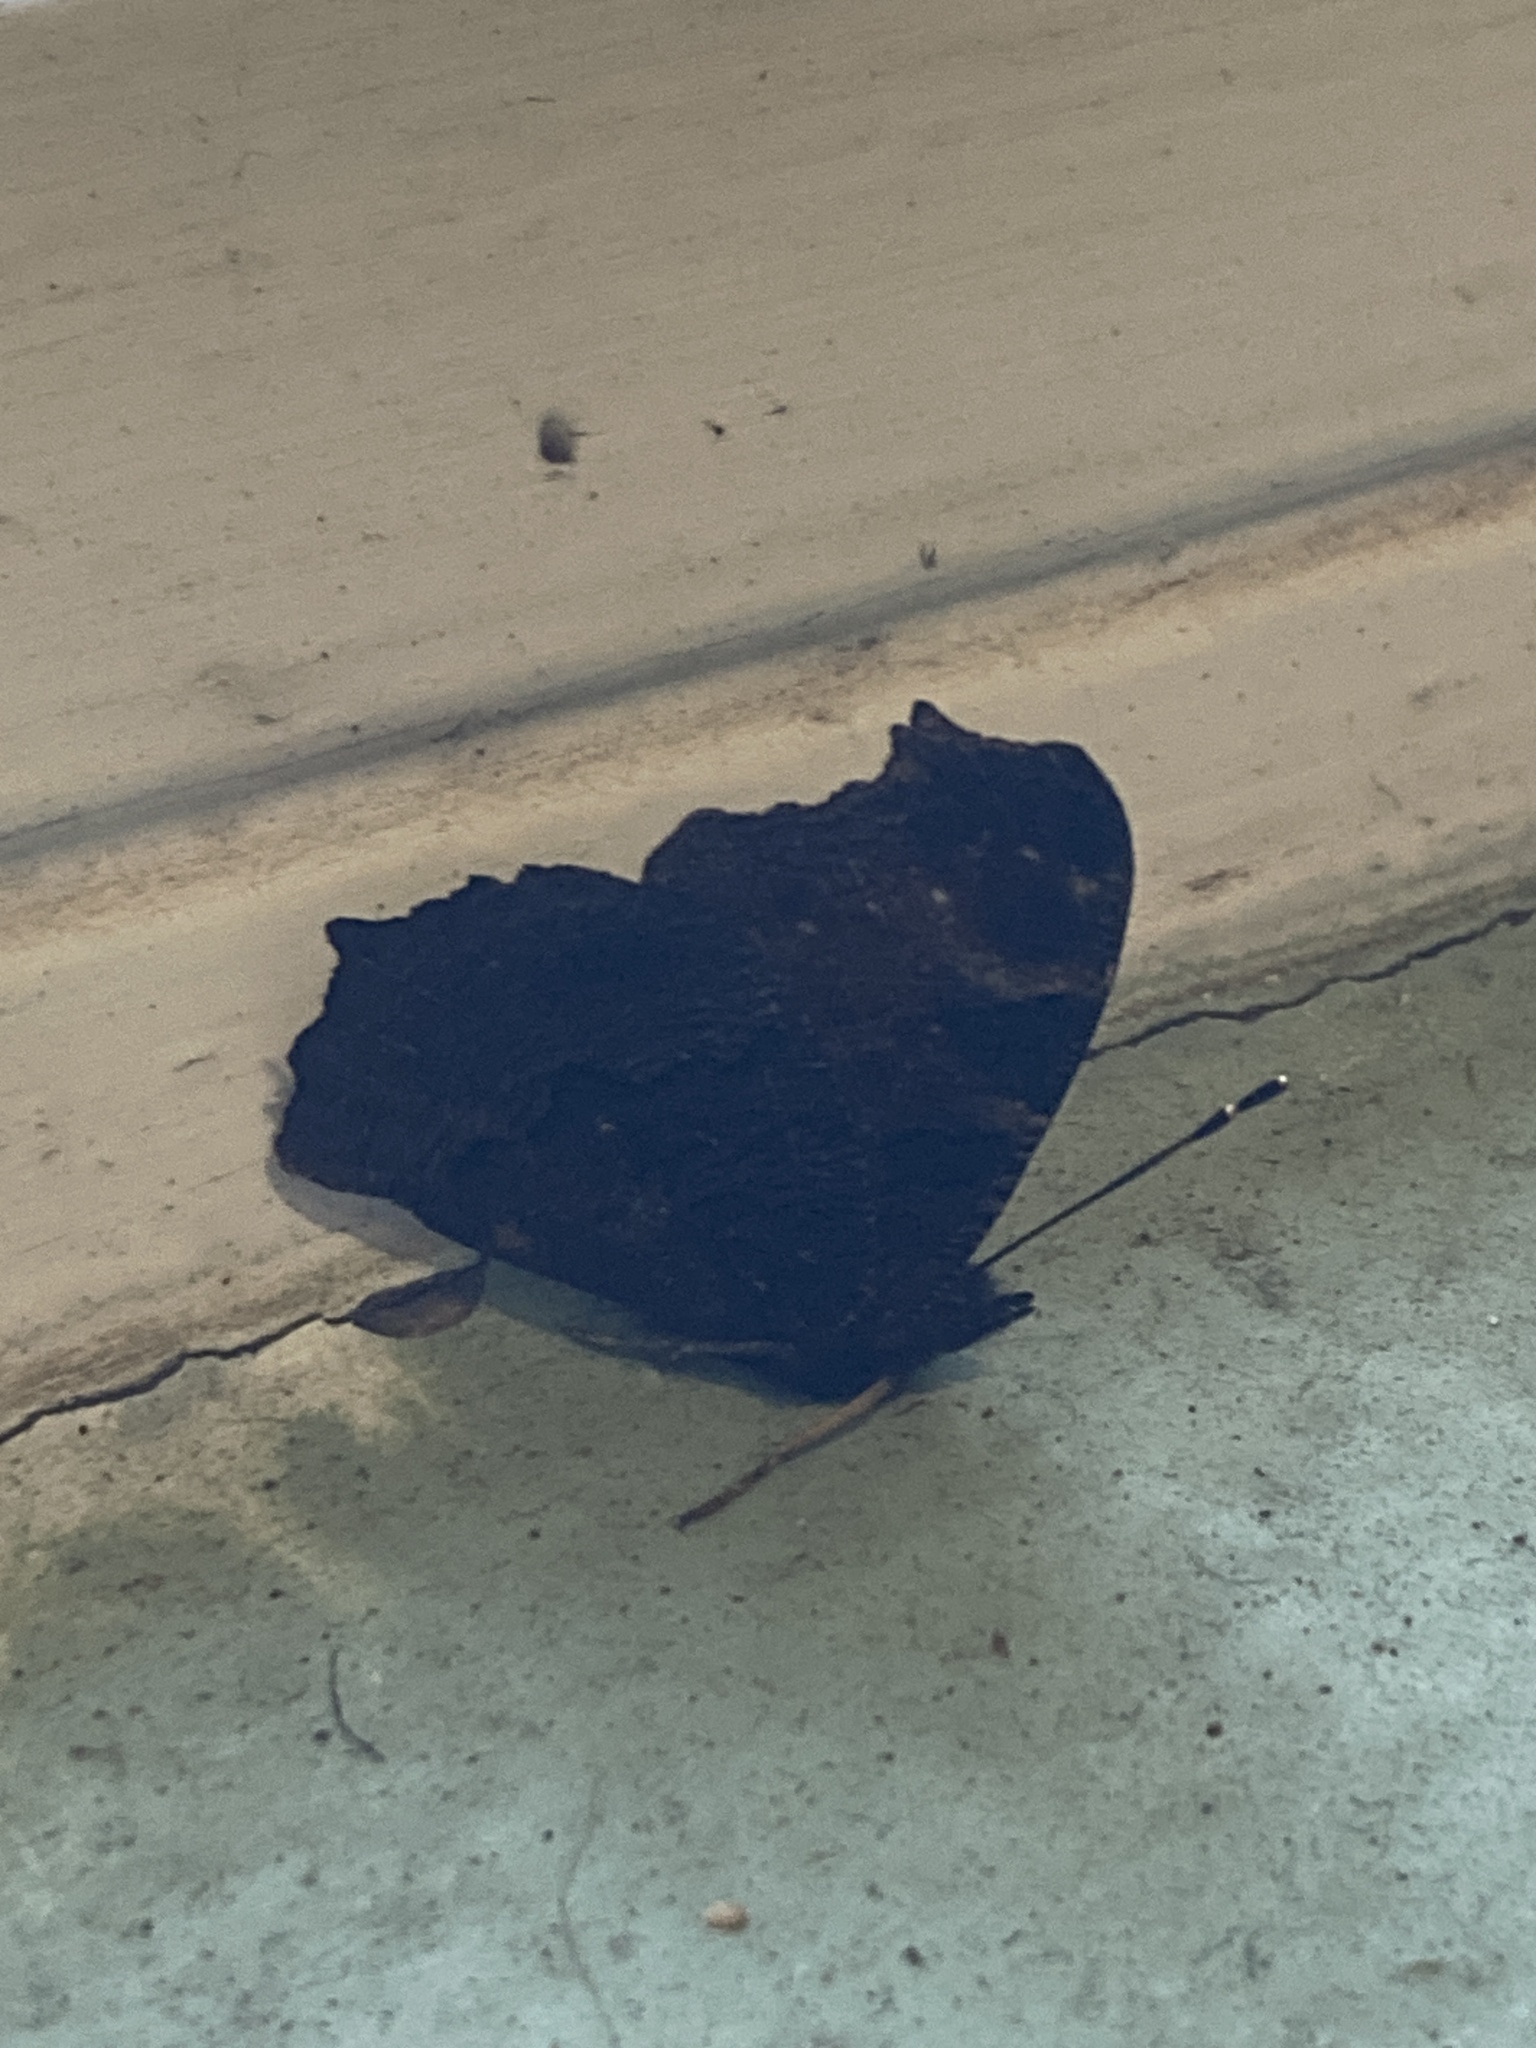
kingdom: Animalia
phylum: Arthropoda
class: Insecta
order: Lepidoptera
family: Nymphalidae
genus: Aglais
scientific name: Aglais io
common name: Peacock
